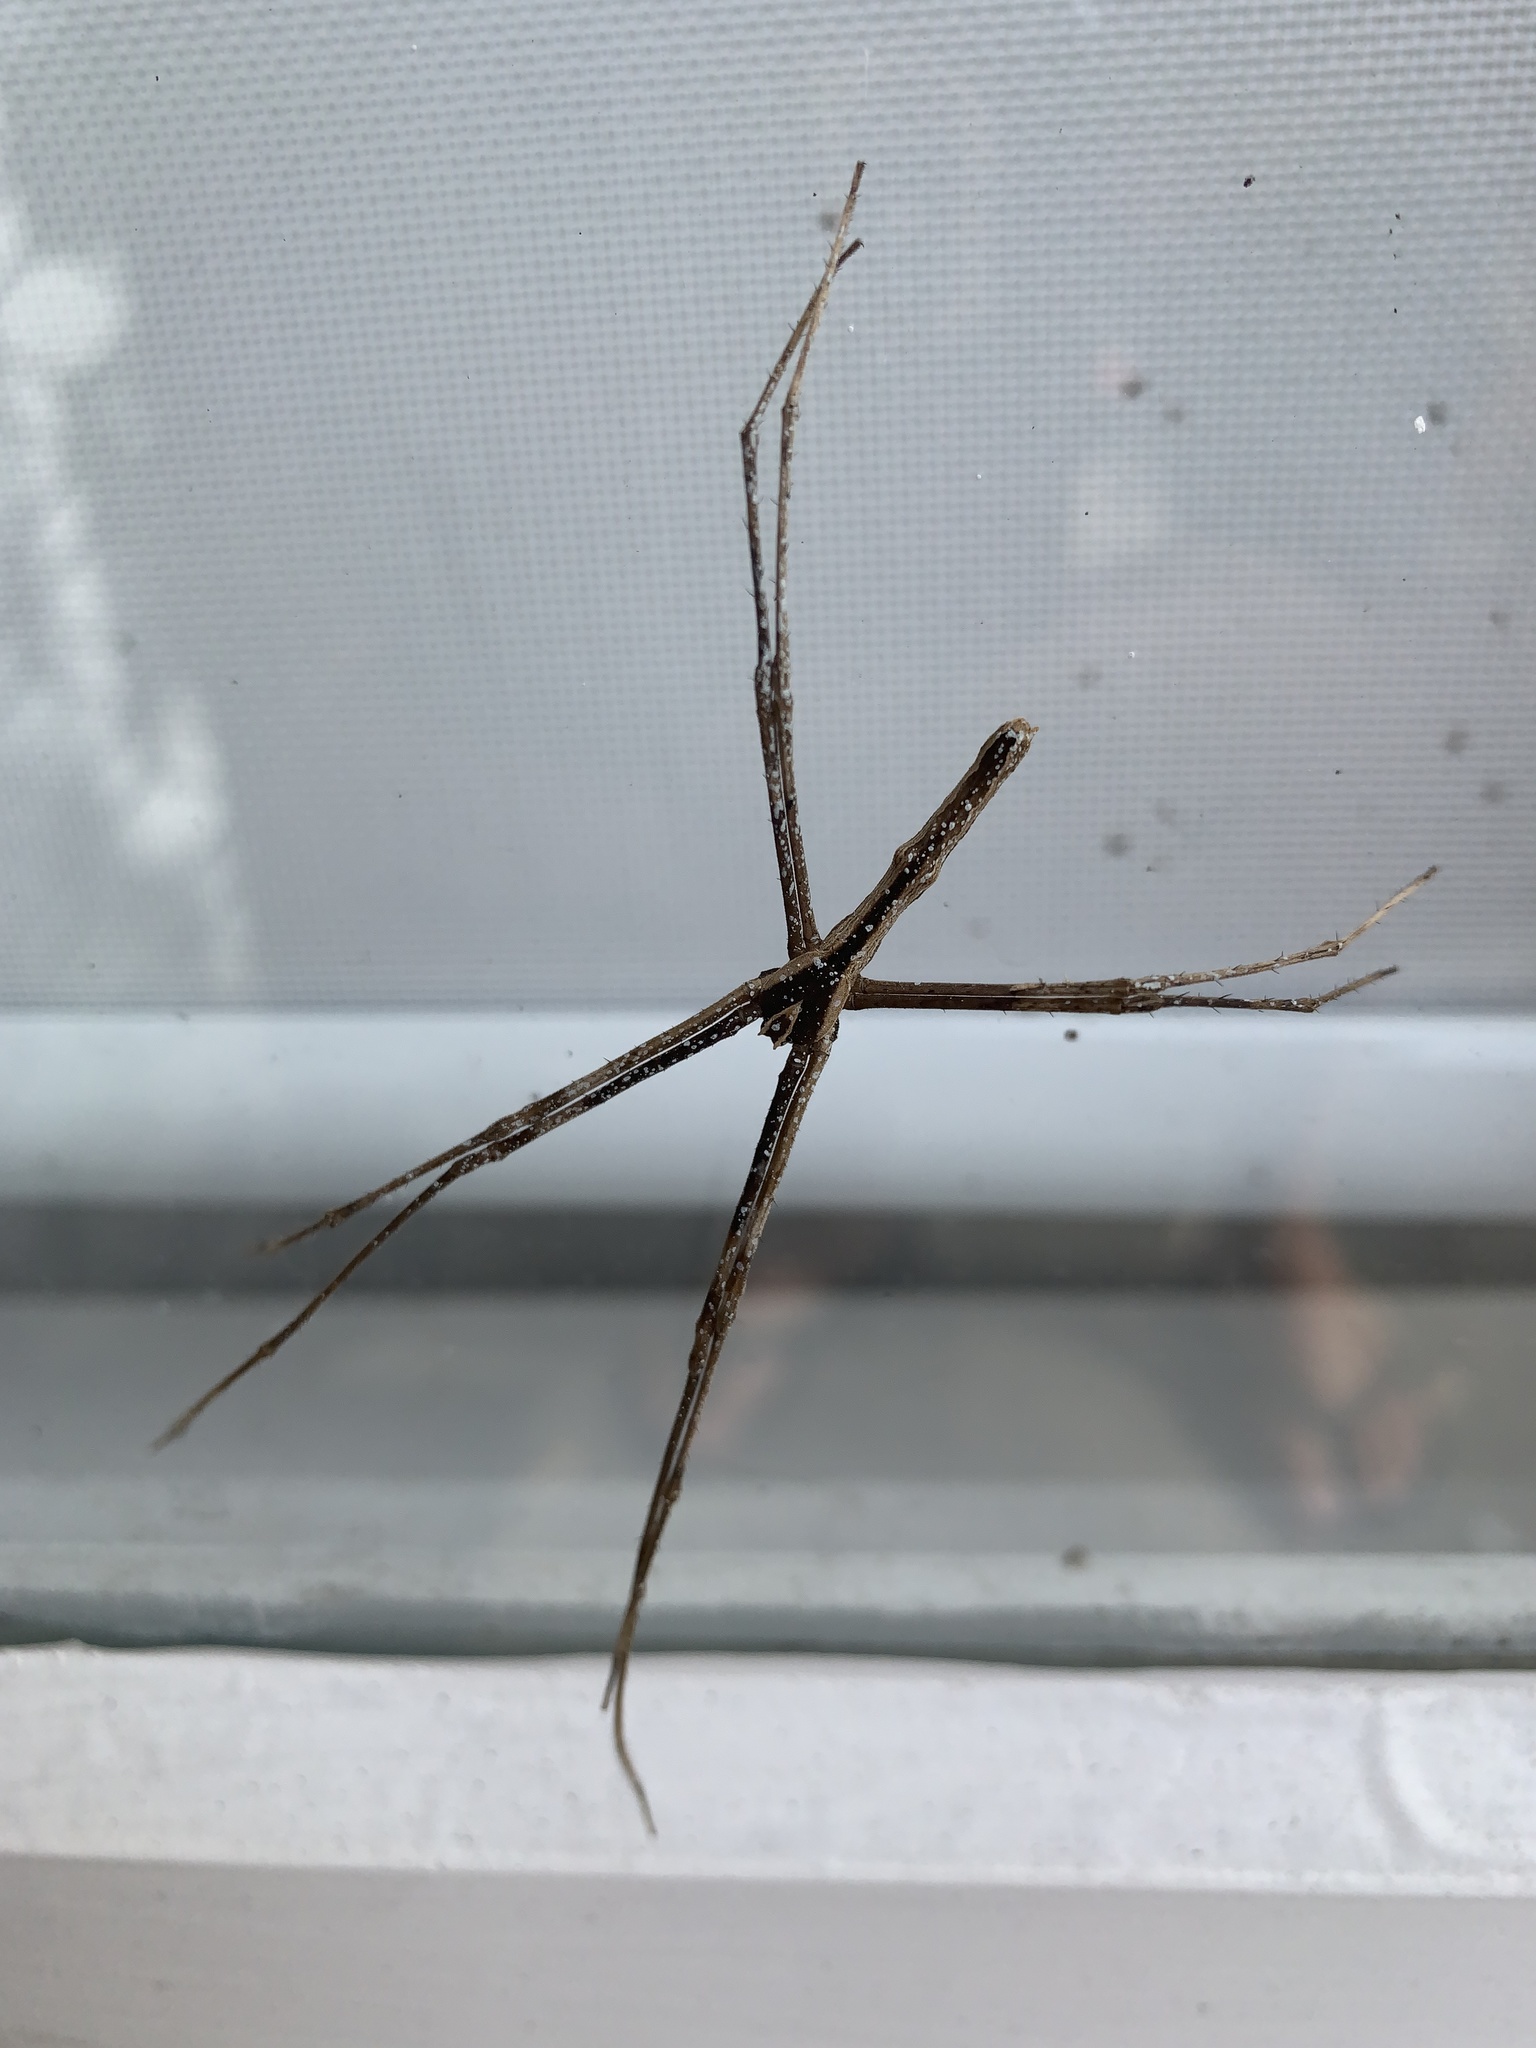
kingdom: Animalia
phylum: Arthropoda
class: Arachnida
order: Araneae
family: Deinopidae
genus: Deinopis
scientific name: Deinopis subrufa
